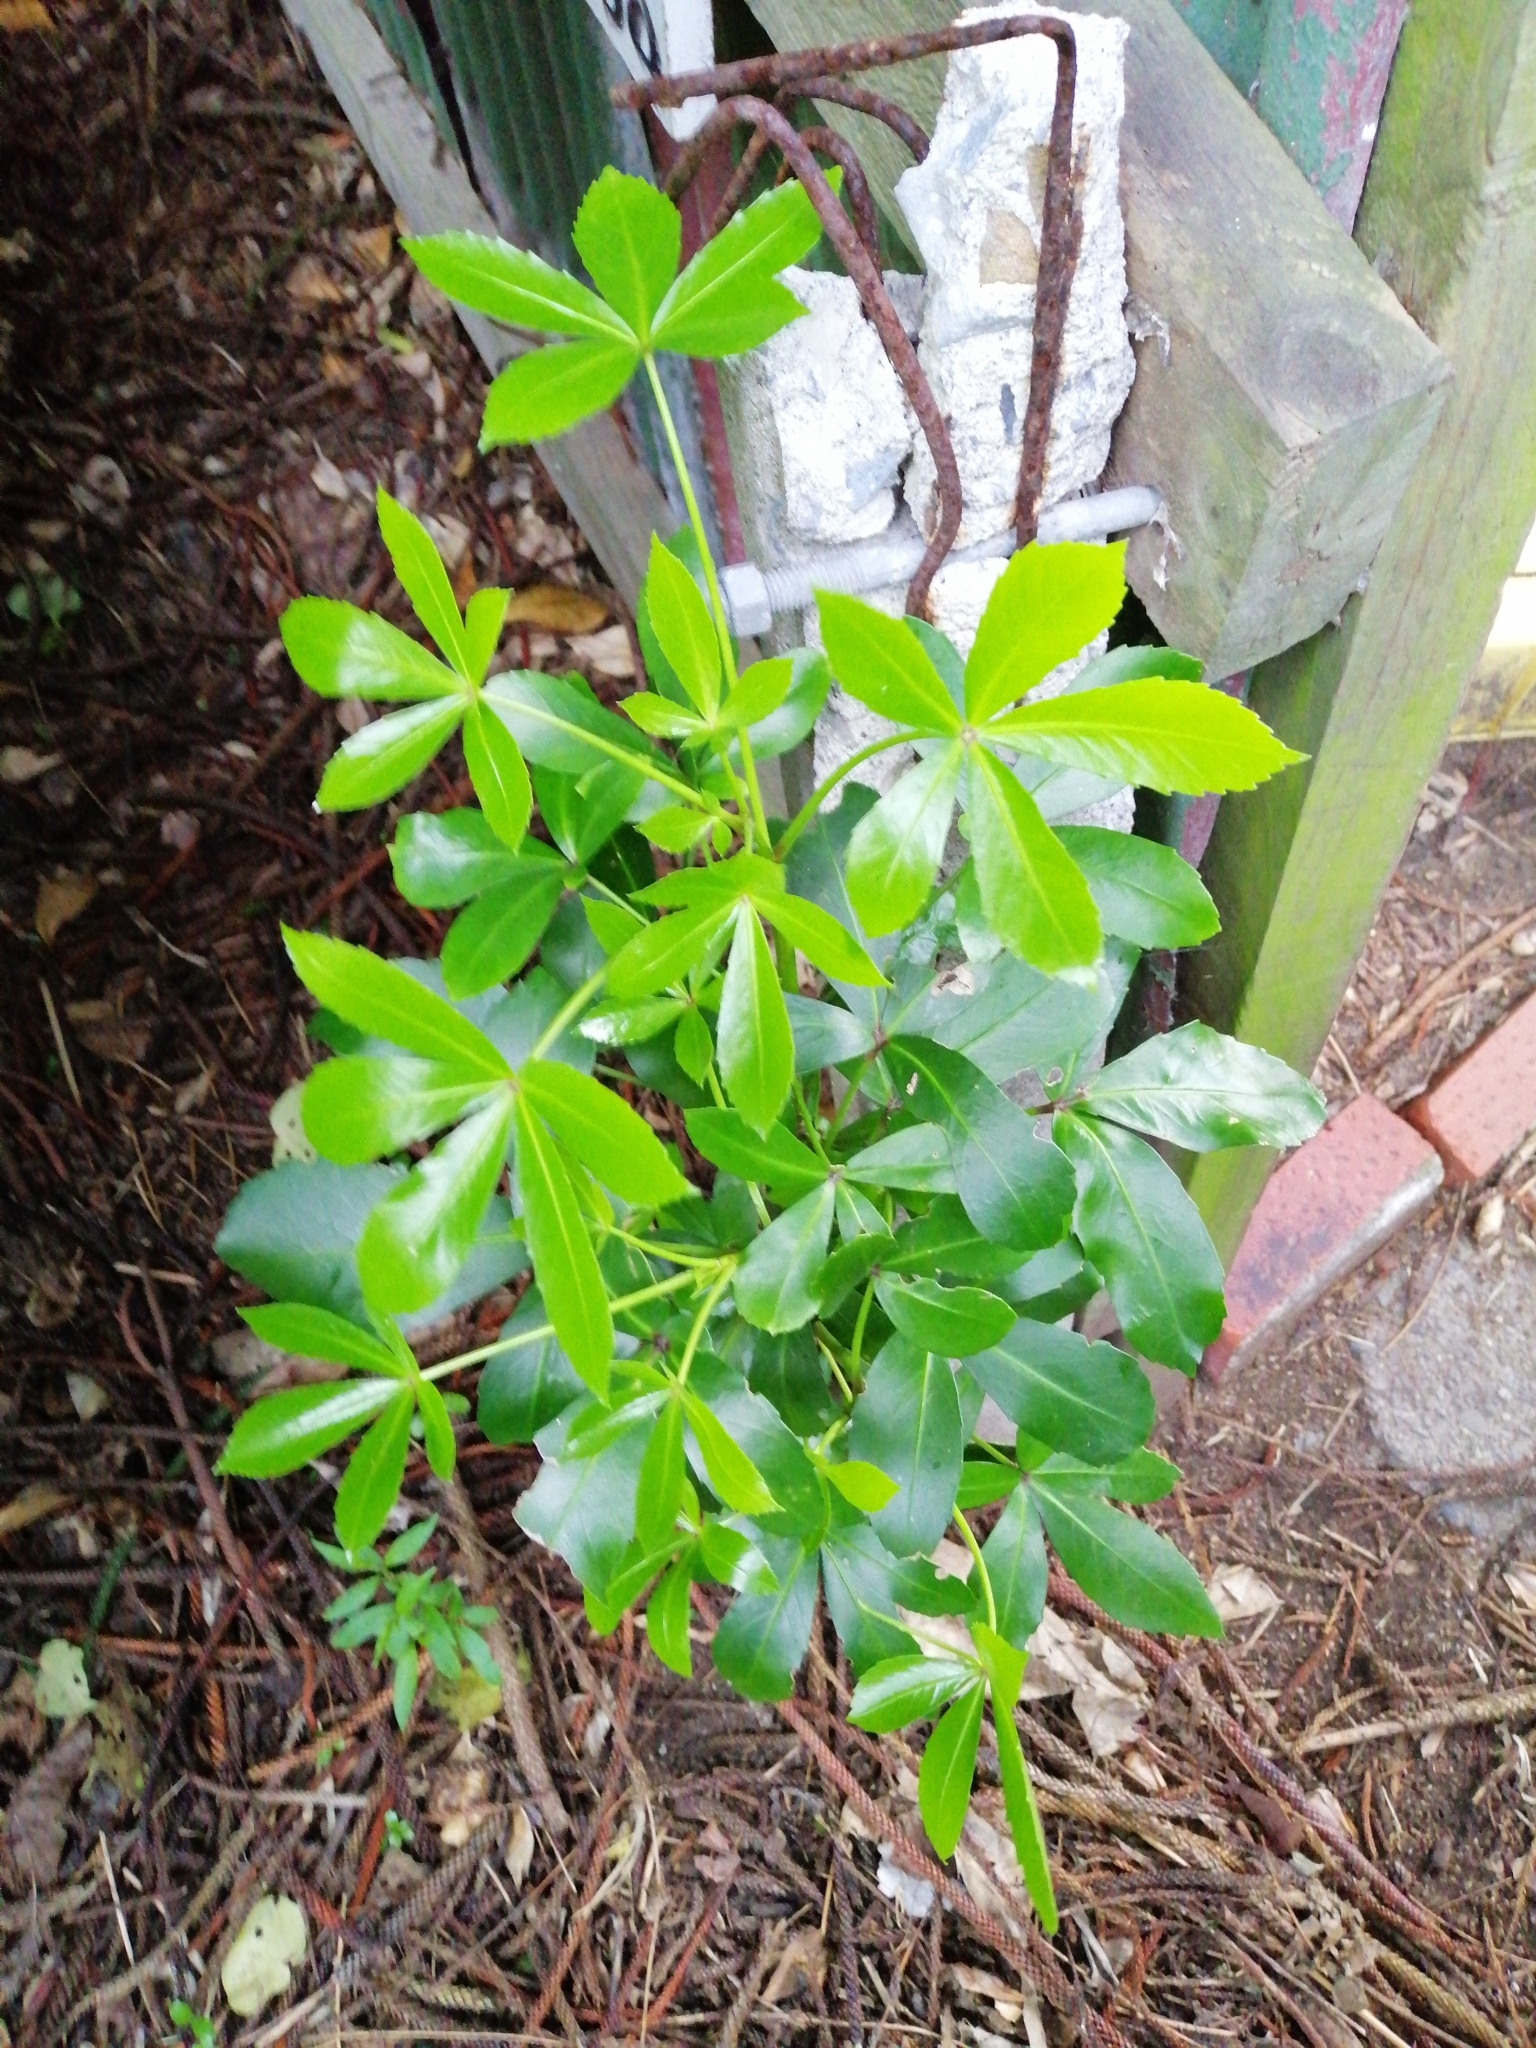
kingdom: Plantae
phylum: Tracheophyta
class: Magnoliopsida
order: Apiales
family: Araliaceae
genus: Pseudopanax
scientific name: Pseudopanax lessonii
